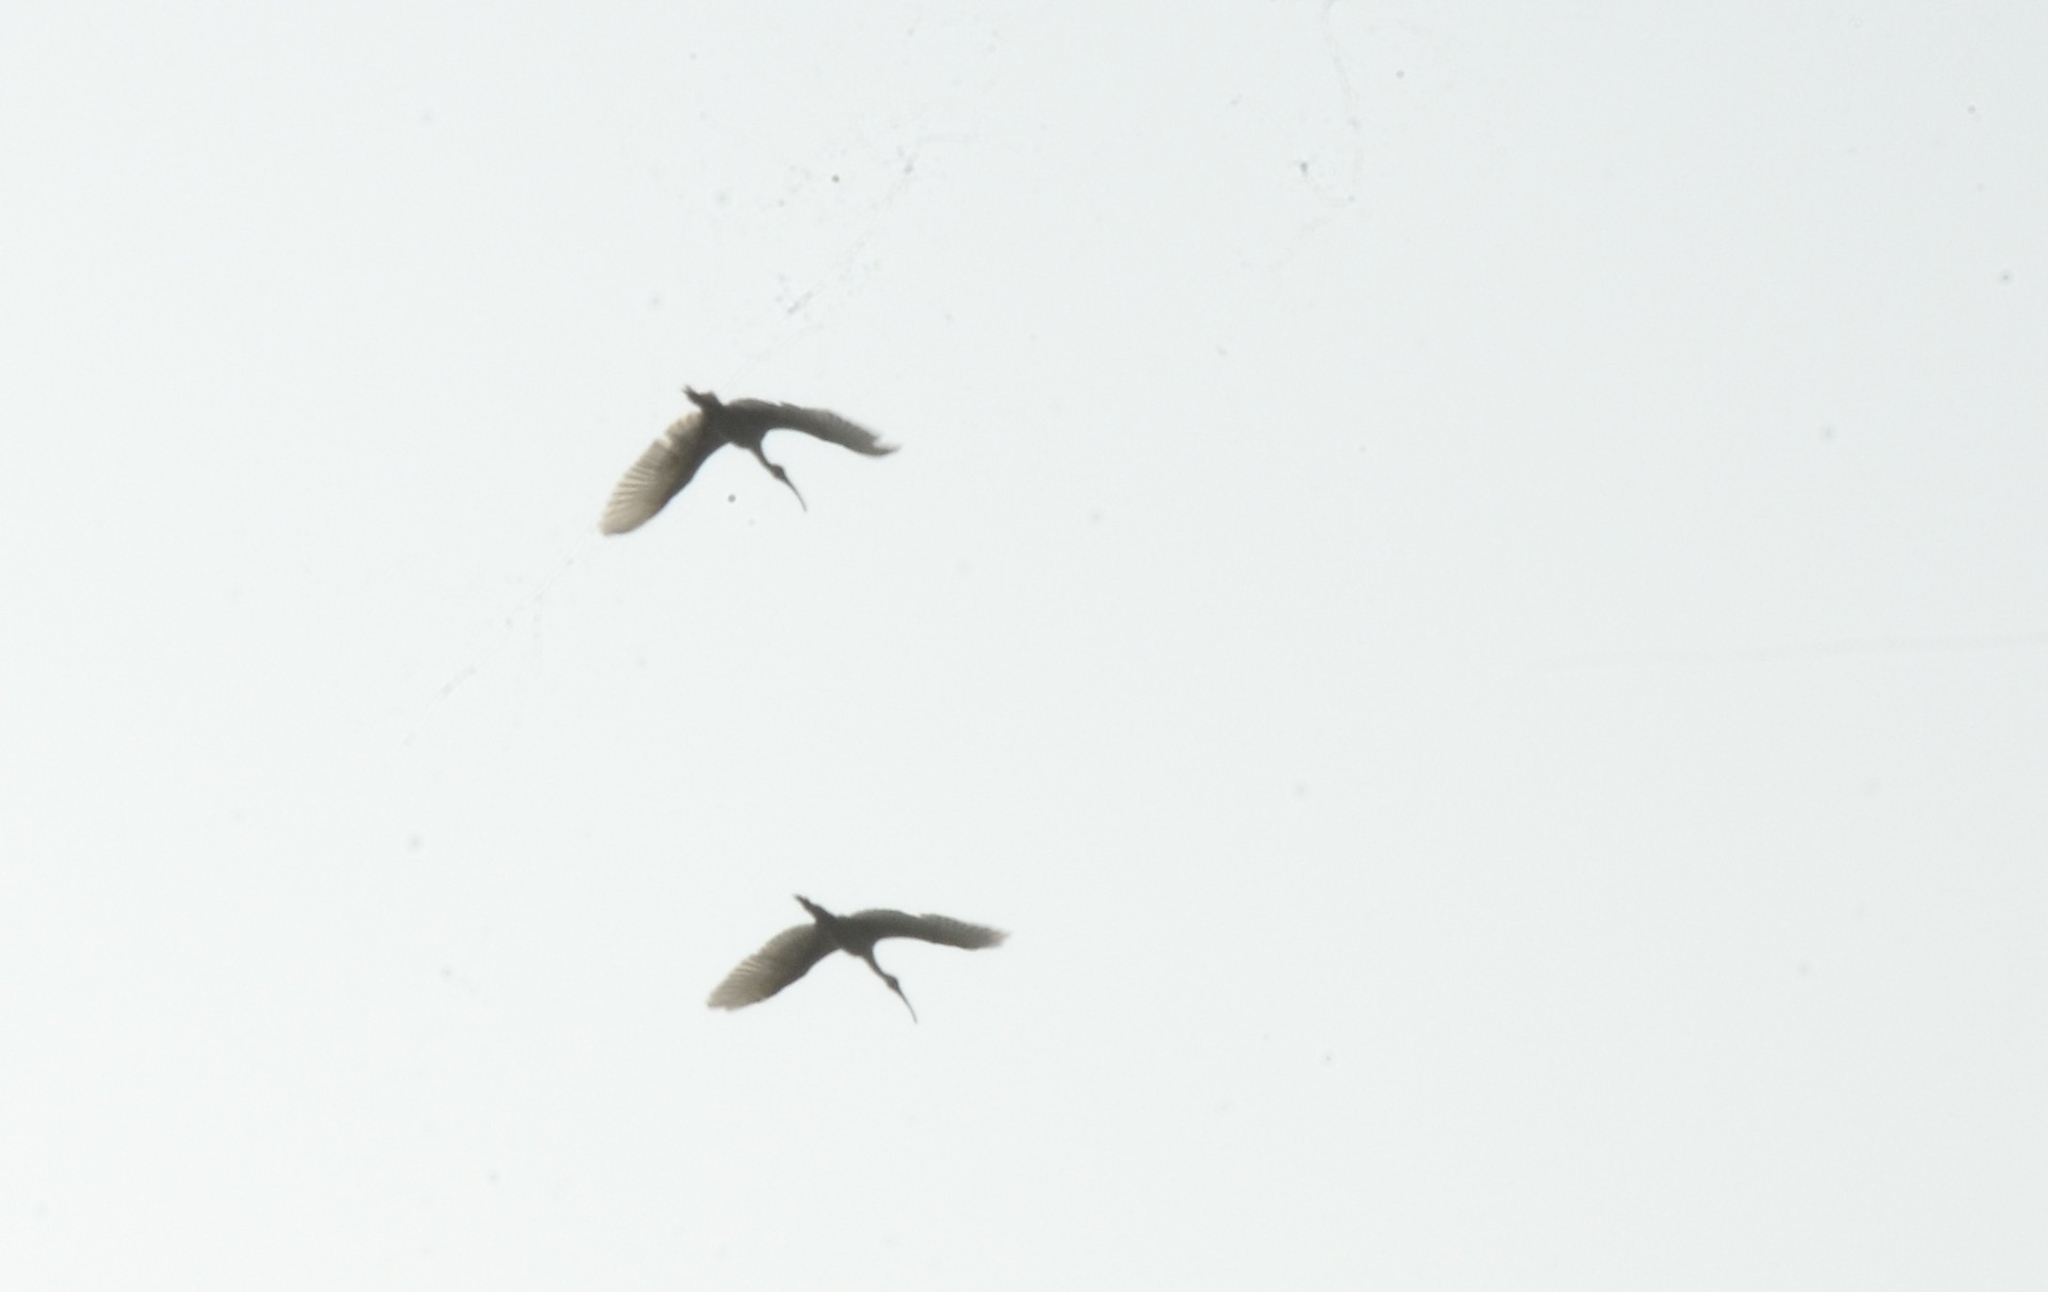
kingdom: Animalia
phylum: Chordata
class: Aves
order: Pelecaniformes
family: Threskiornithidae
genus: Threskiornis
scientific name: Threskiornis melanocephalus
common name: Black-headed ibis
